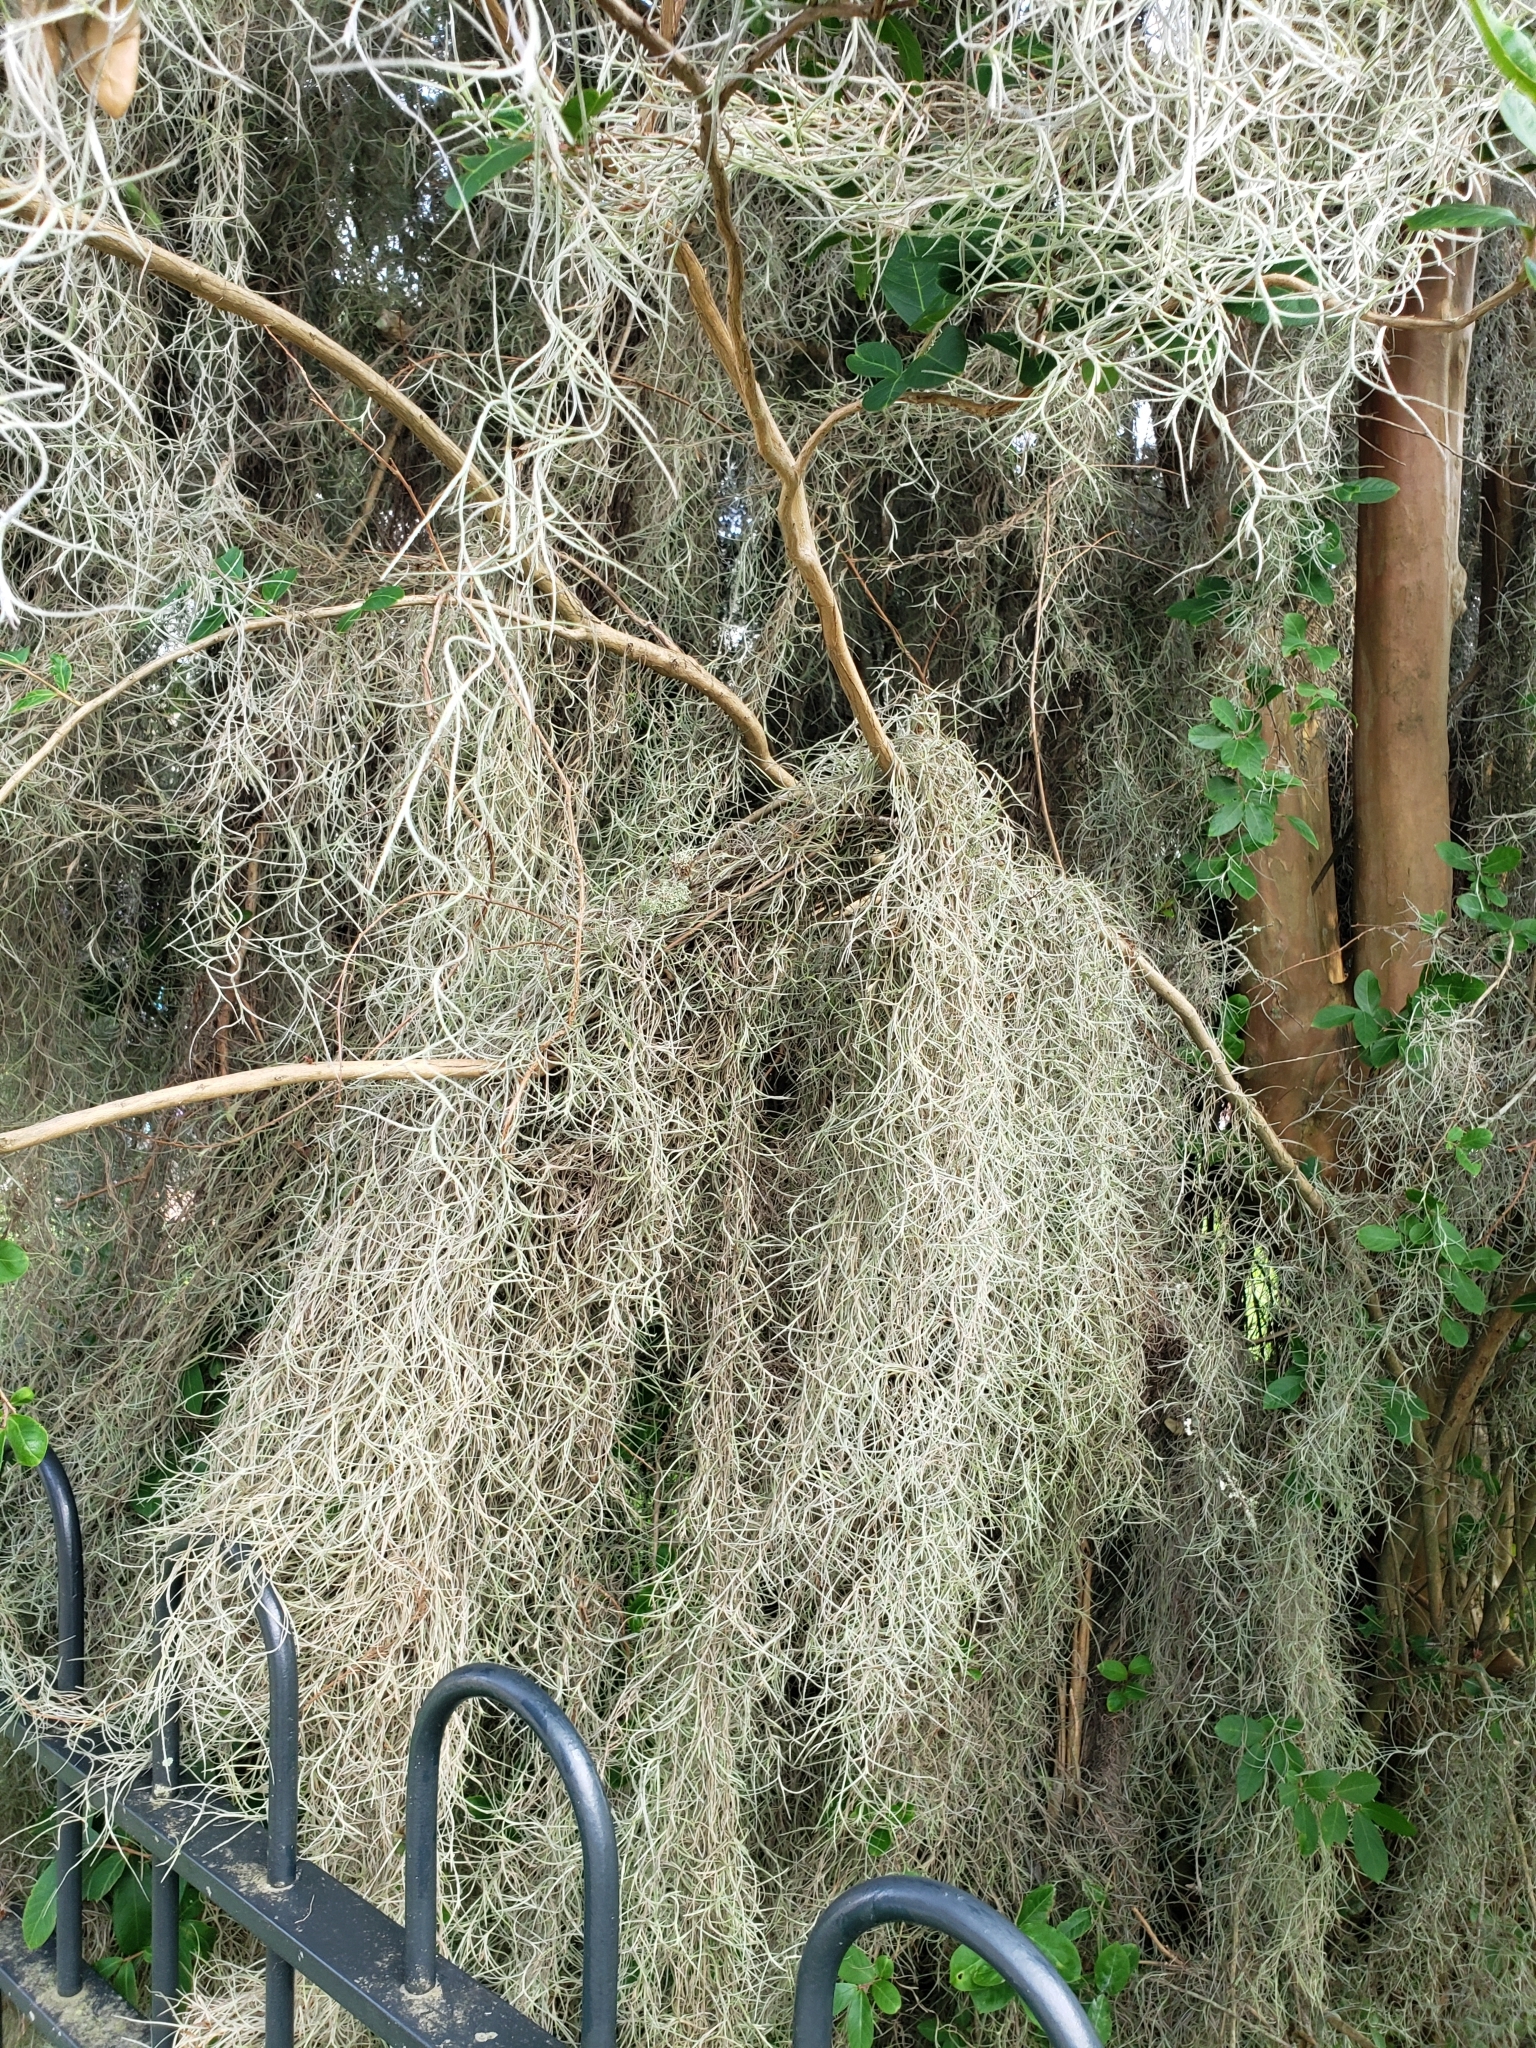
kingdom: Plantae
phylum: Tracheophyta
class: Liliopsida
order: Poales
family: Bromeliaceae
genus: Tillandsia
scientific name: Tillandsia usneoides
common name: Spanish moss
